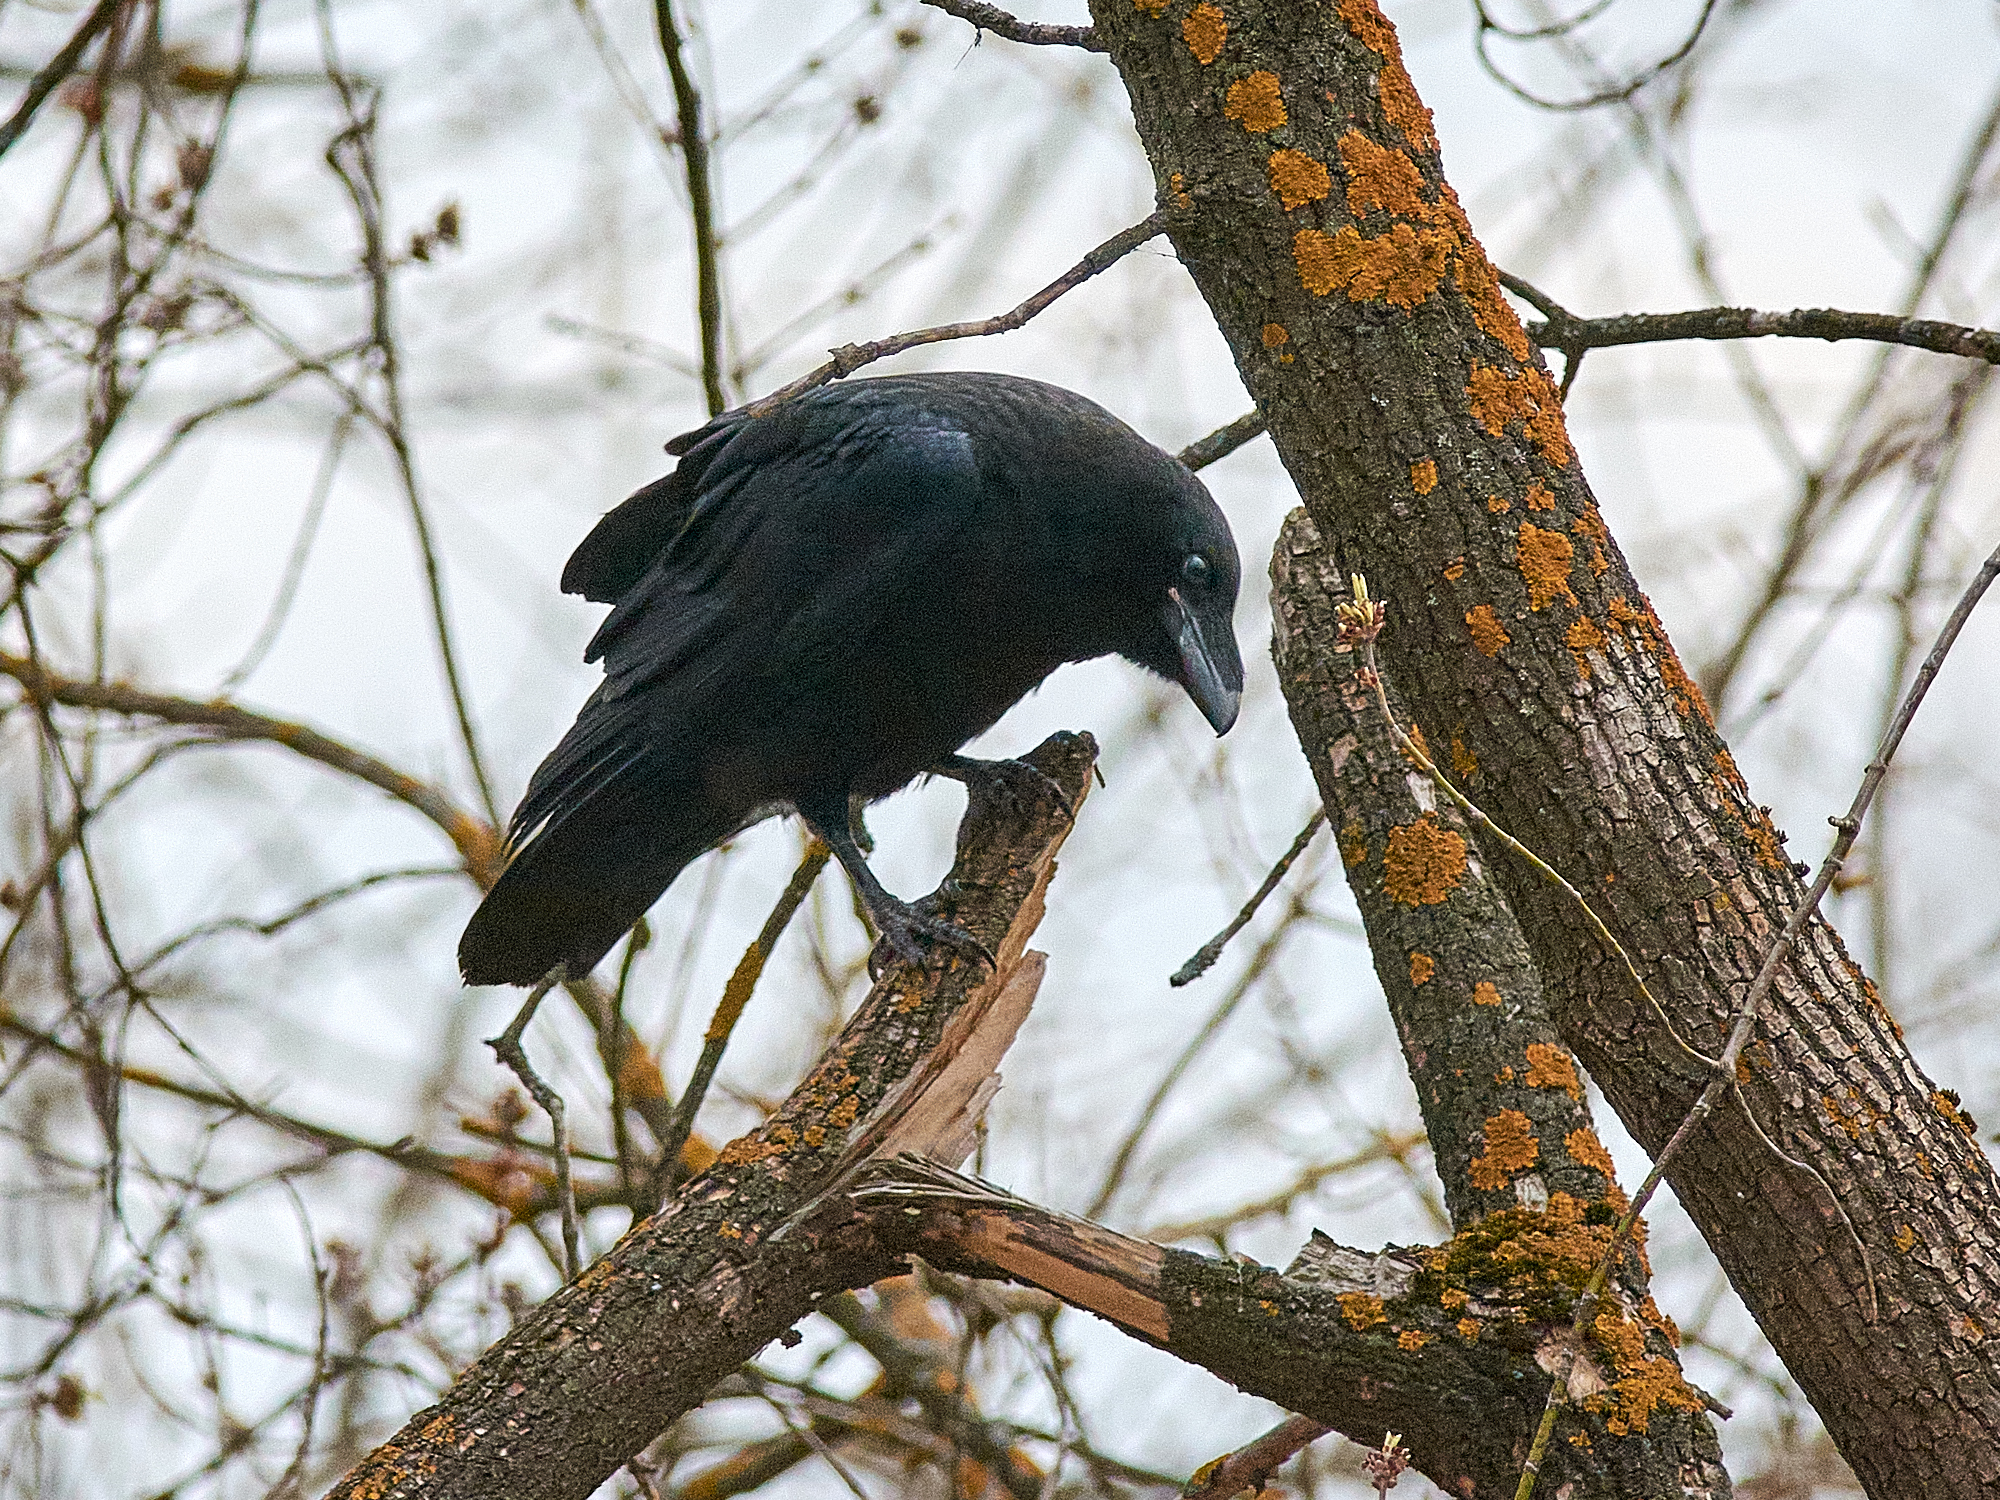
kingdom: Animalia
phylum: Chordata
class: Aves
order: Passeriformes
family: Corvidae
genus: Corvus
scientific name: Corvus corax
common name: Common raven
